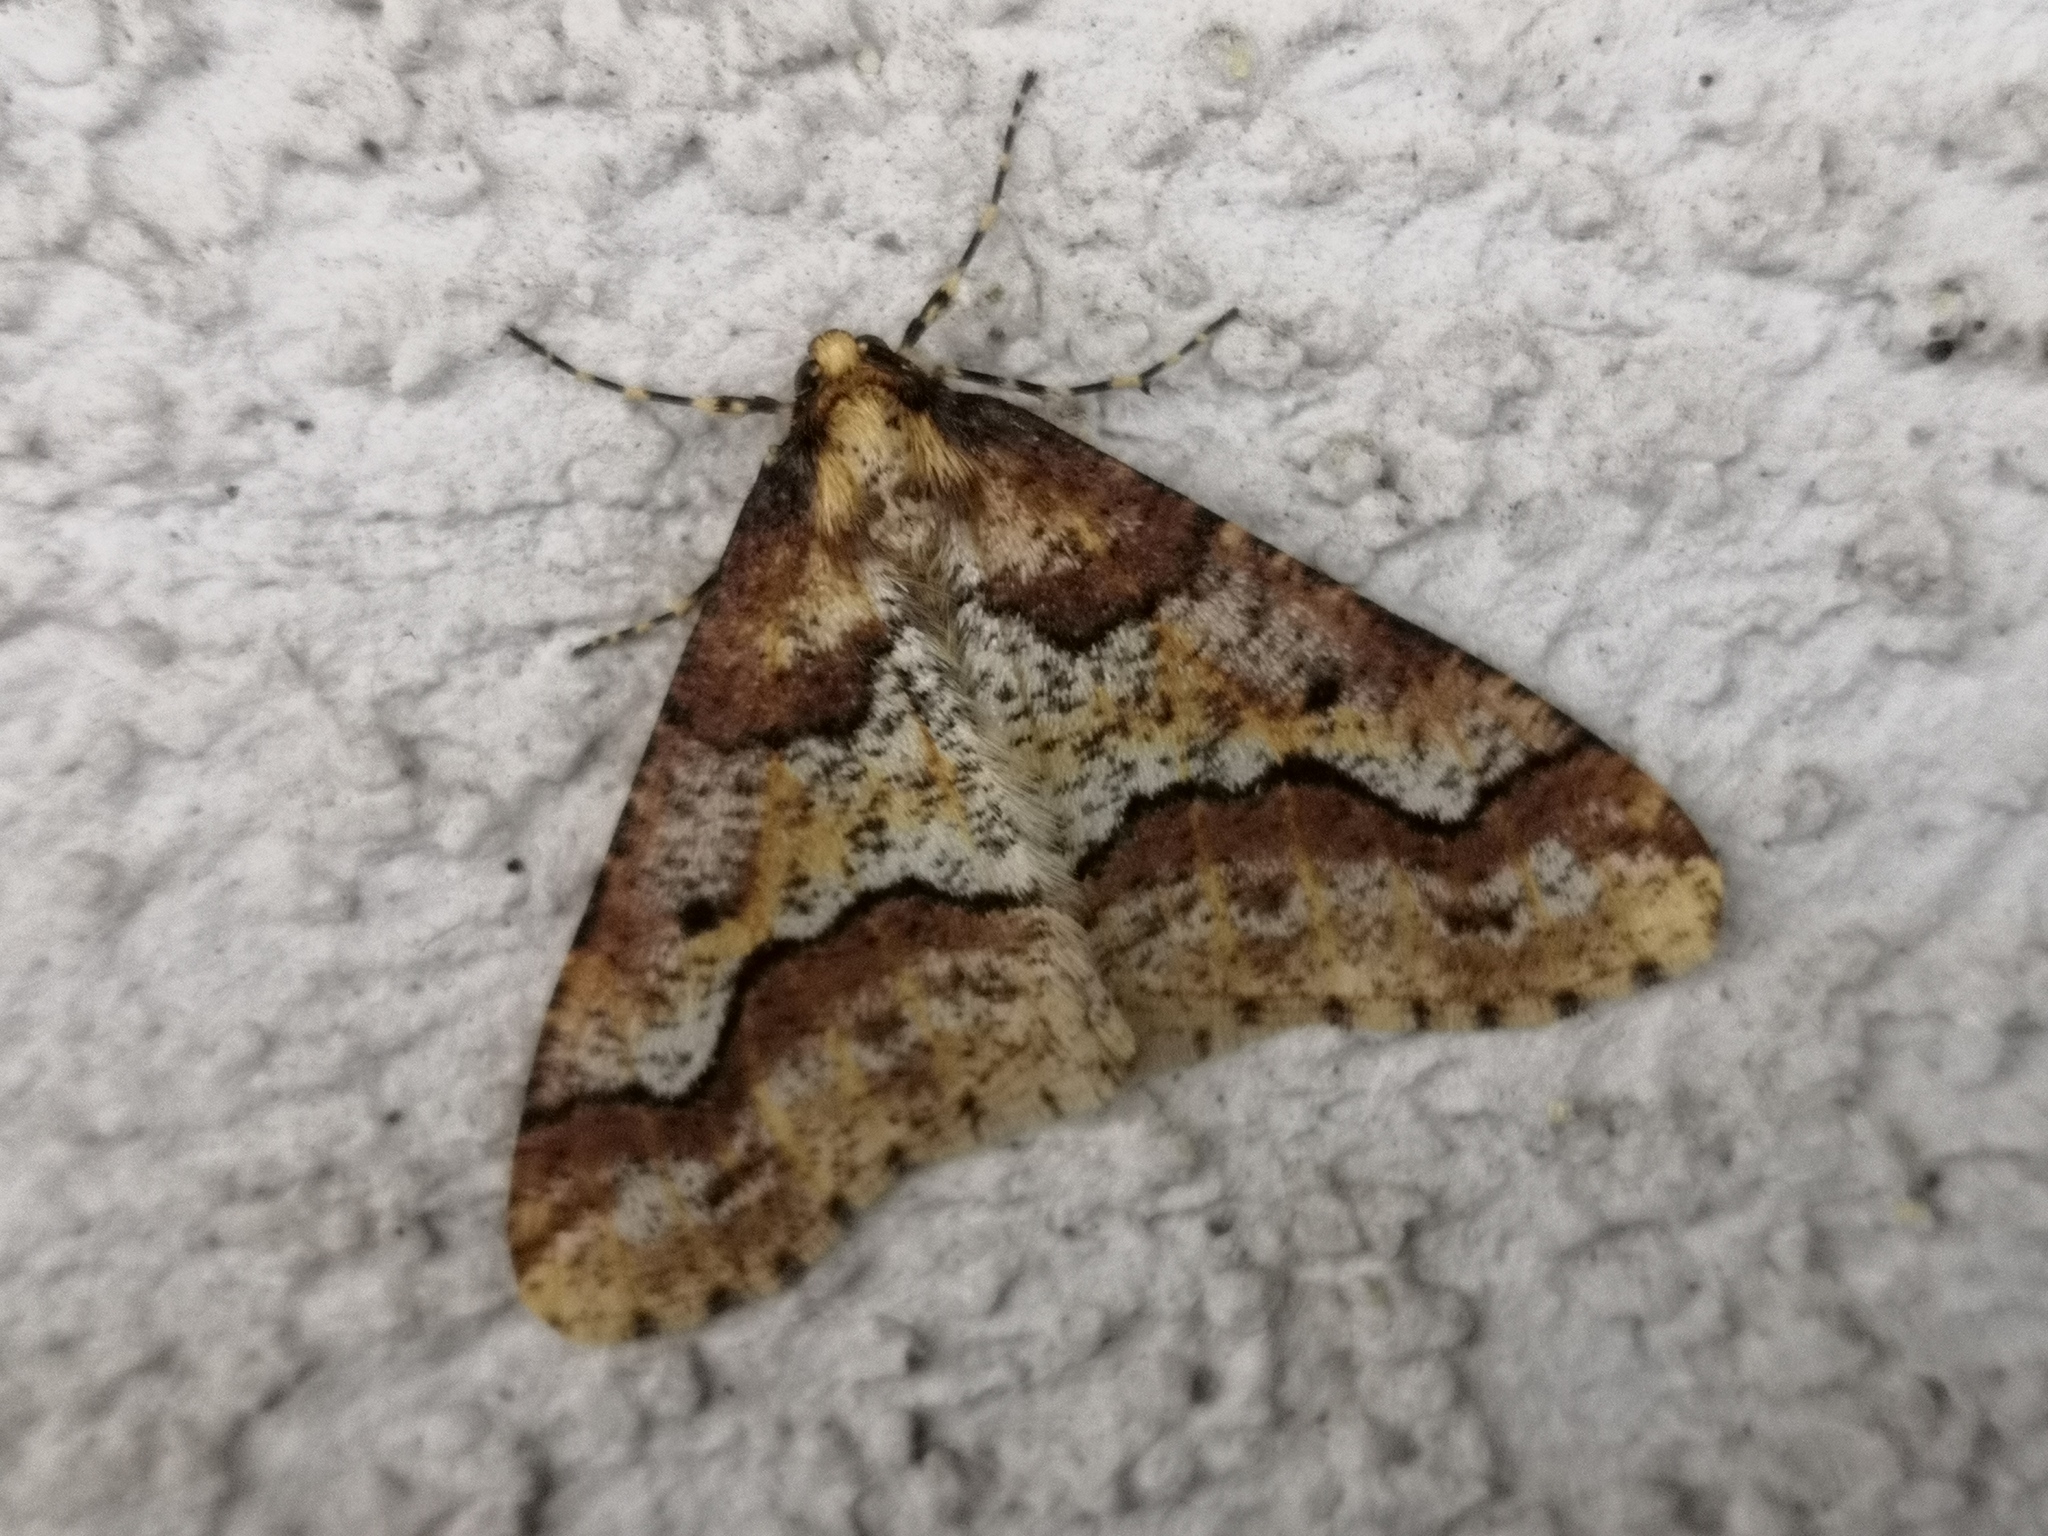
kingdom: Animalia
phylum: Arthropoda
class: Insecta
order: Lepidoptera
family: Geometridae
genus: Erannis
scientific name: Erannis defoliaria
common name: Mottled umber
